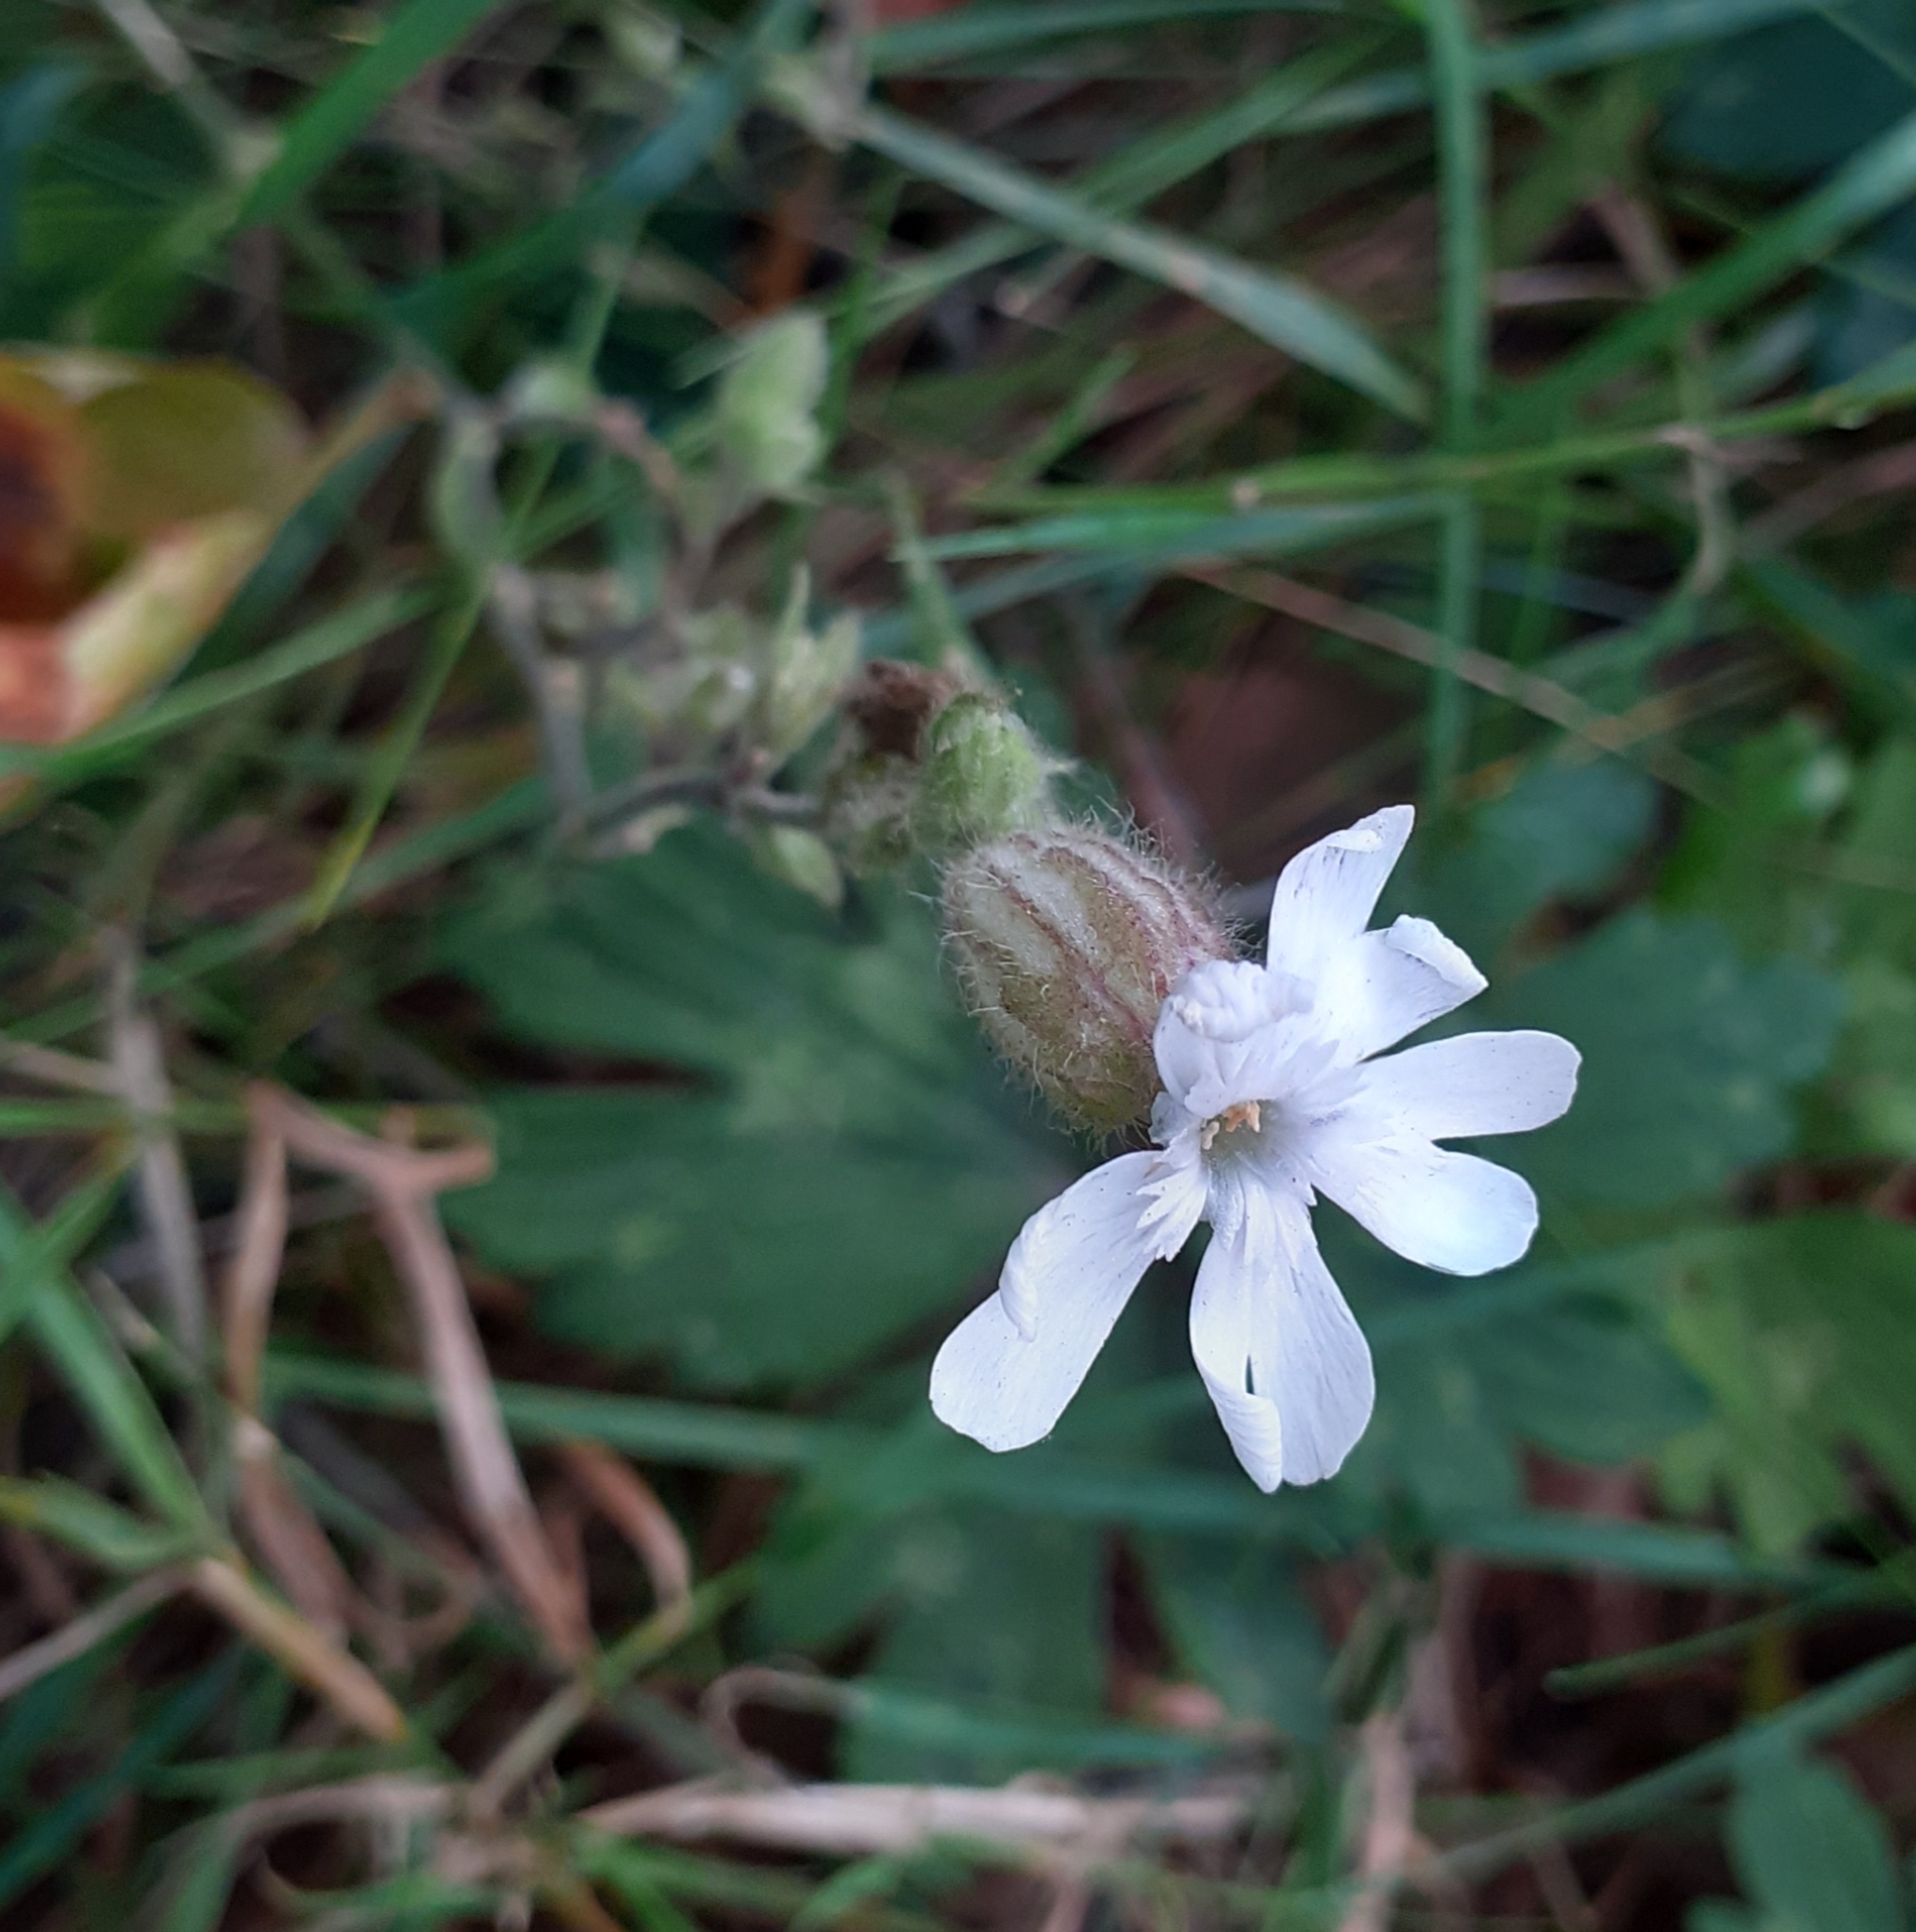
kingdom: Plantae
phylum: Tracheophyta
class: Magnoliopsida
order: Caryophyllales
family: Caryophyllaceae
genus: Silene
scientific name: Silene latifolia
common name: White campion
